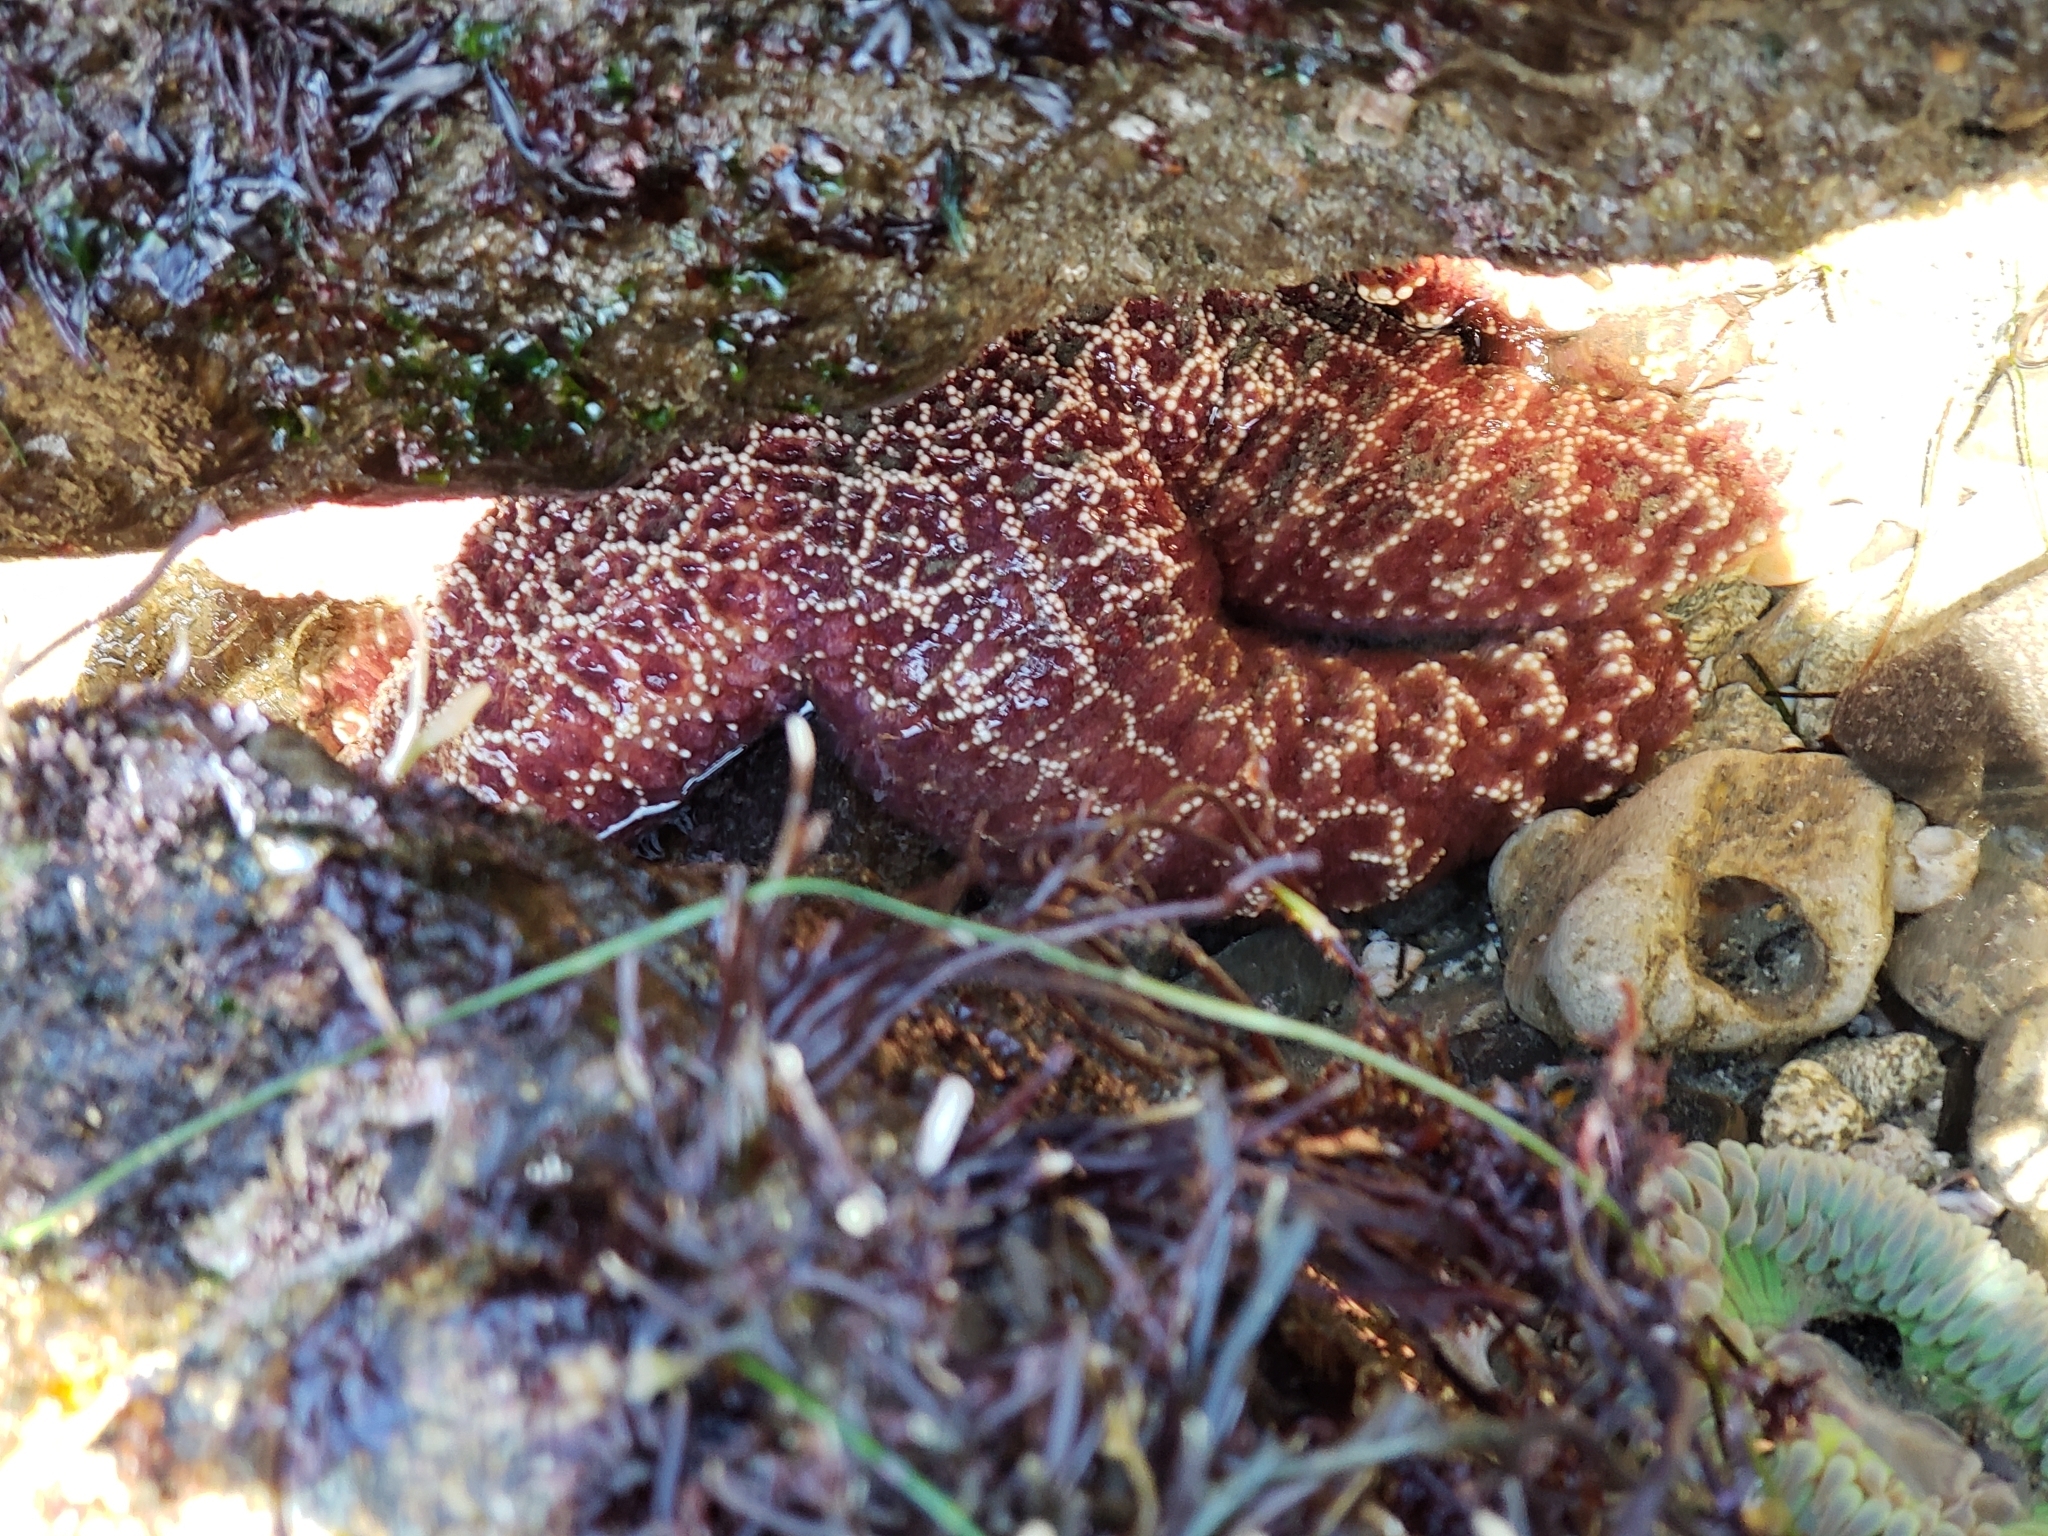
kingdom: Animalia
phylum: Echinodermata
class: Asteroidea
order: Forcipulatida
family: Asteriidae
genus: Pisaster
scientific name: Pisaster ochraceus
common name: Ochre stars
